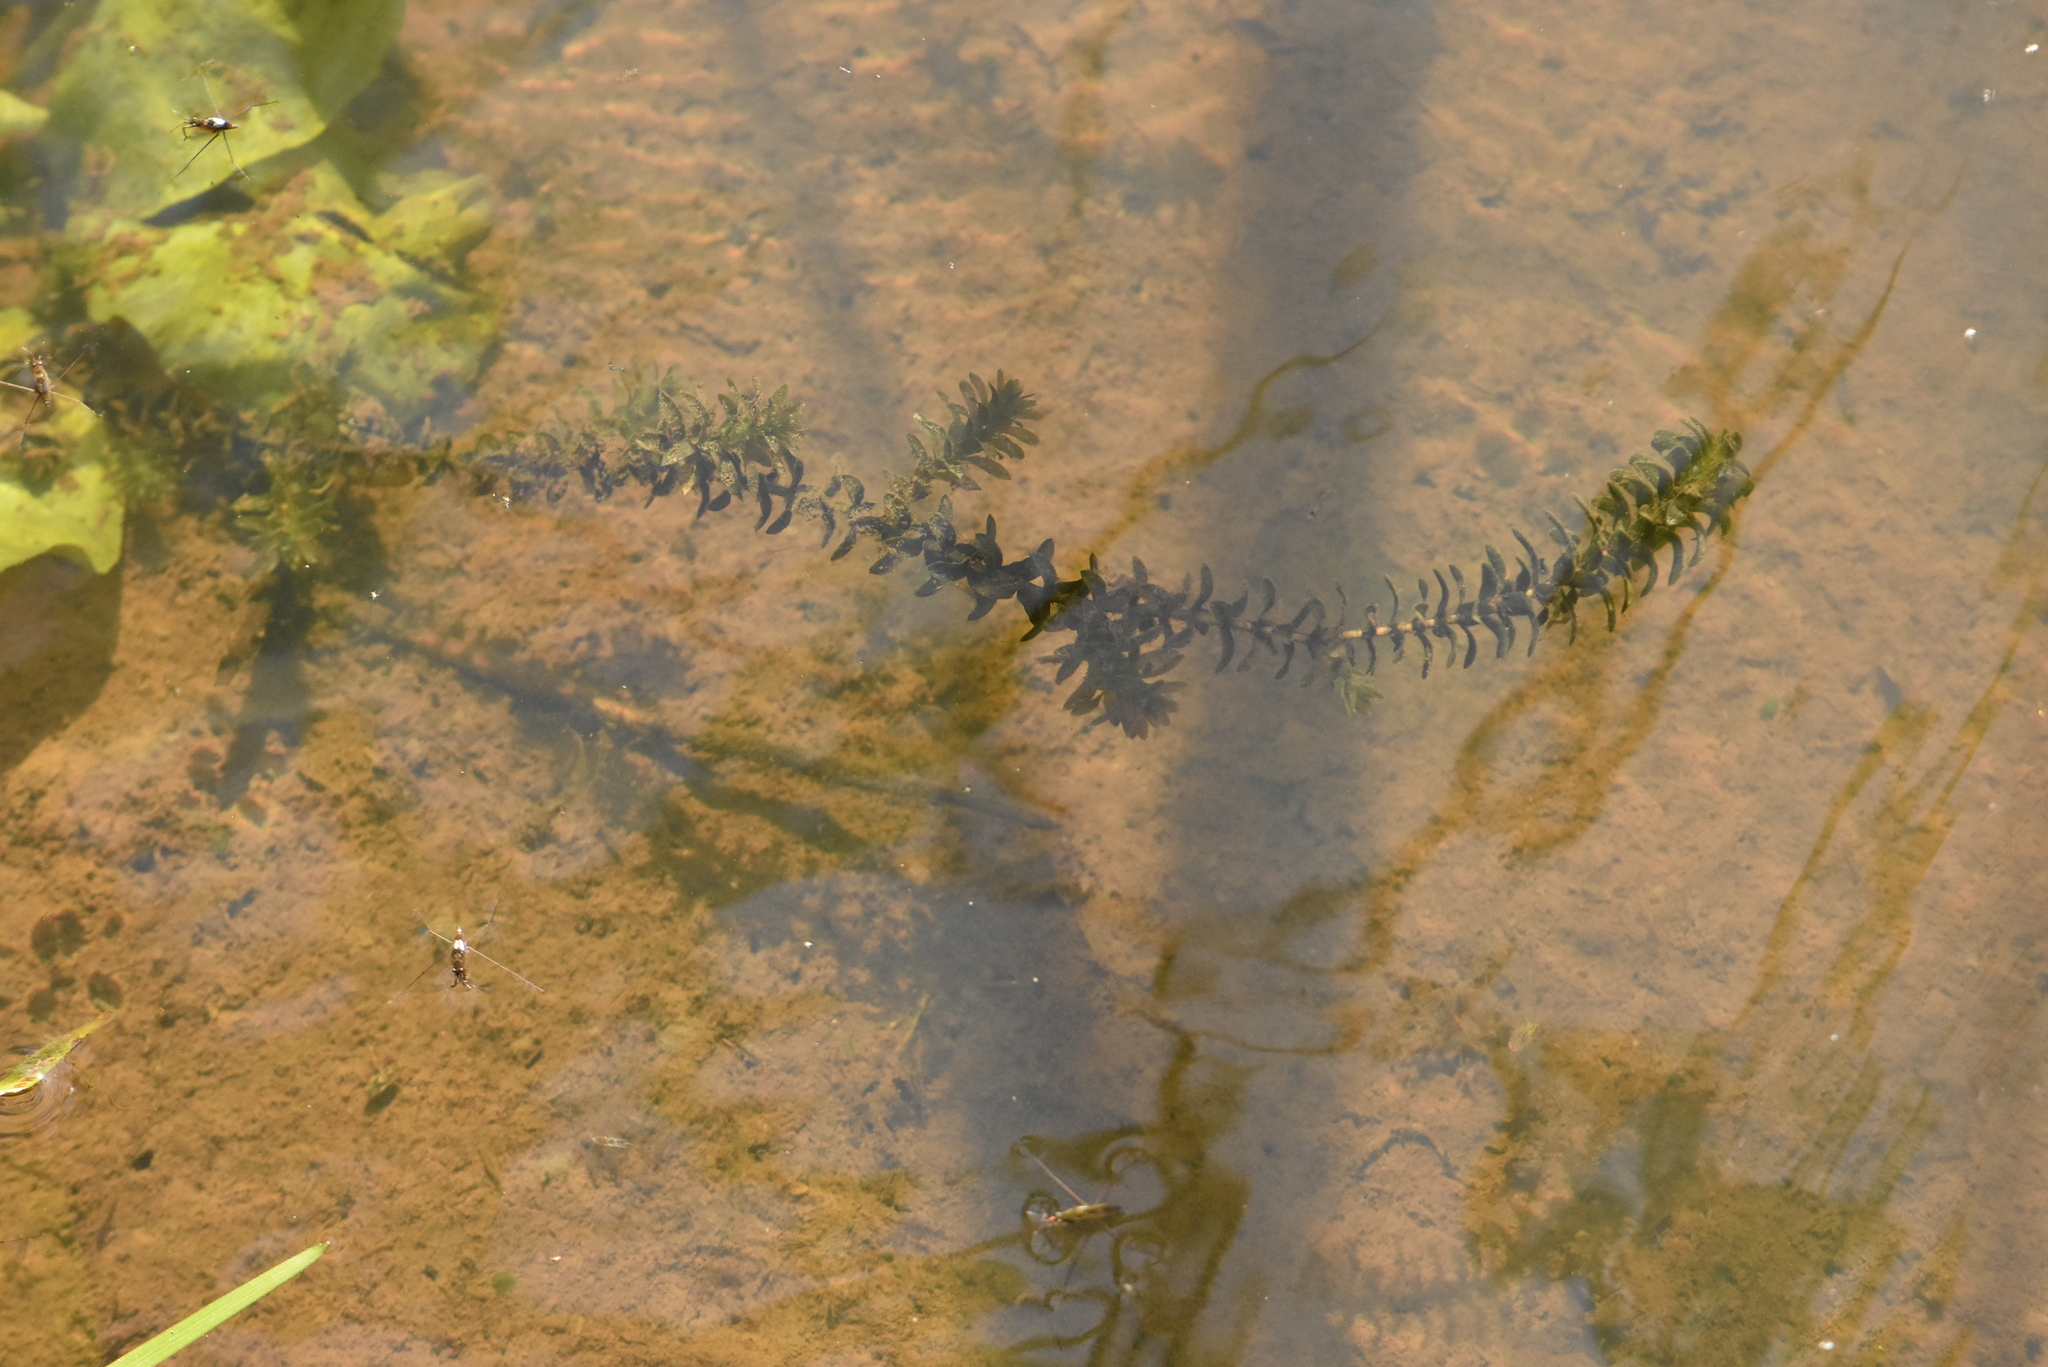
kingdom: Plantae
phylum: Tracheophyta
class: Liliopsida
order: Alismatales
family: Hydrocharitaceae
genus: Elodea
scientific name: Elodea canadensis
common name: Canadian waterweed
